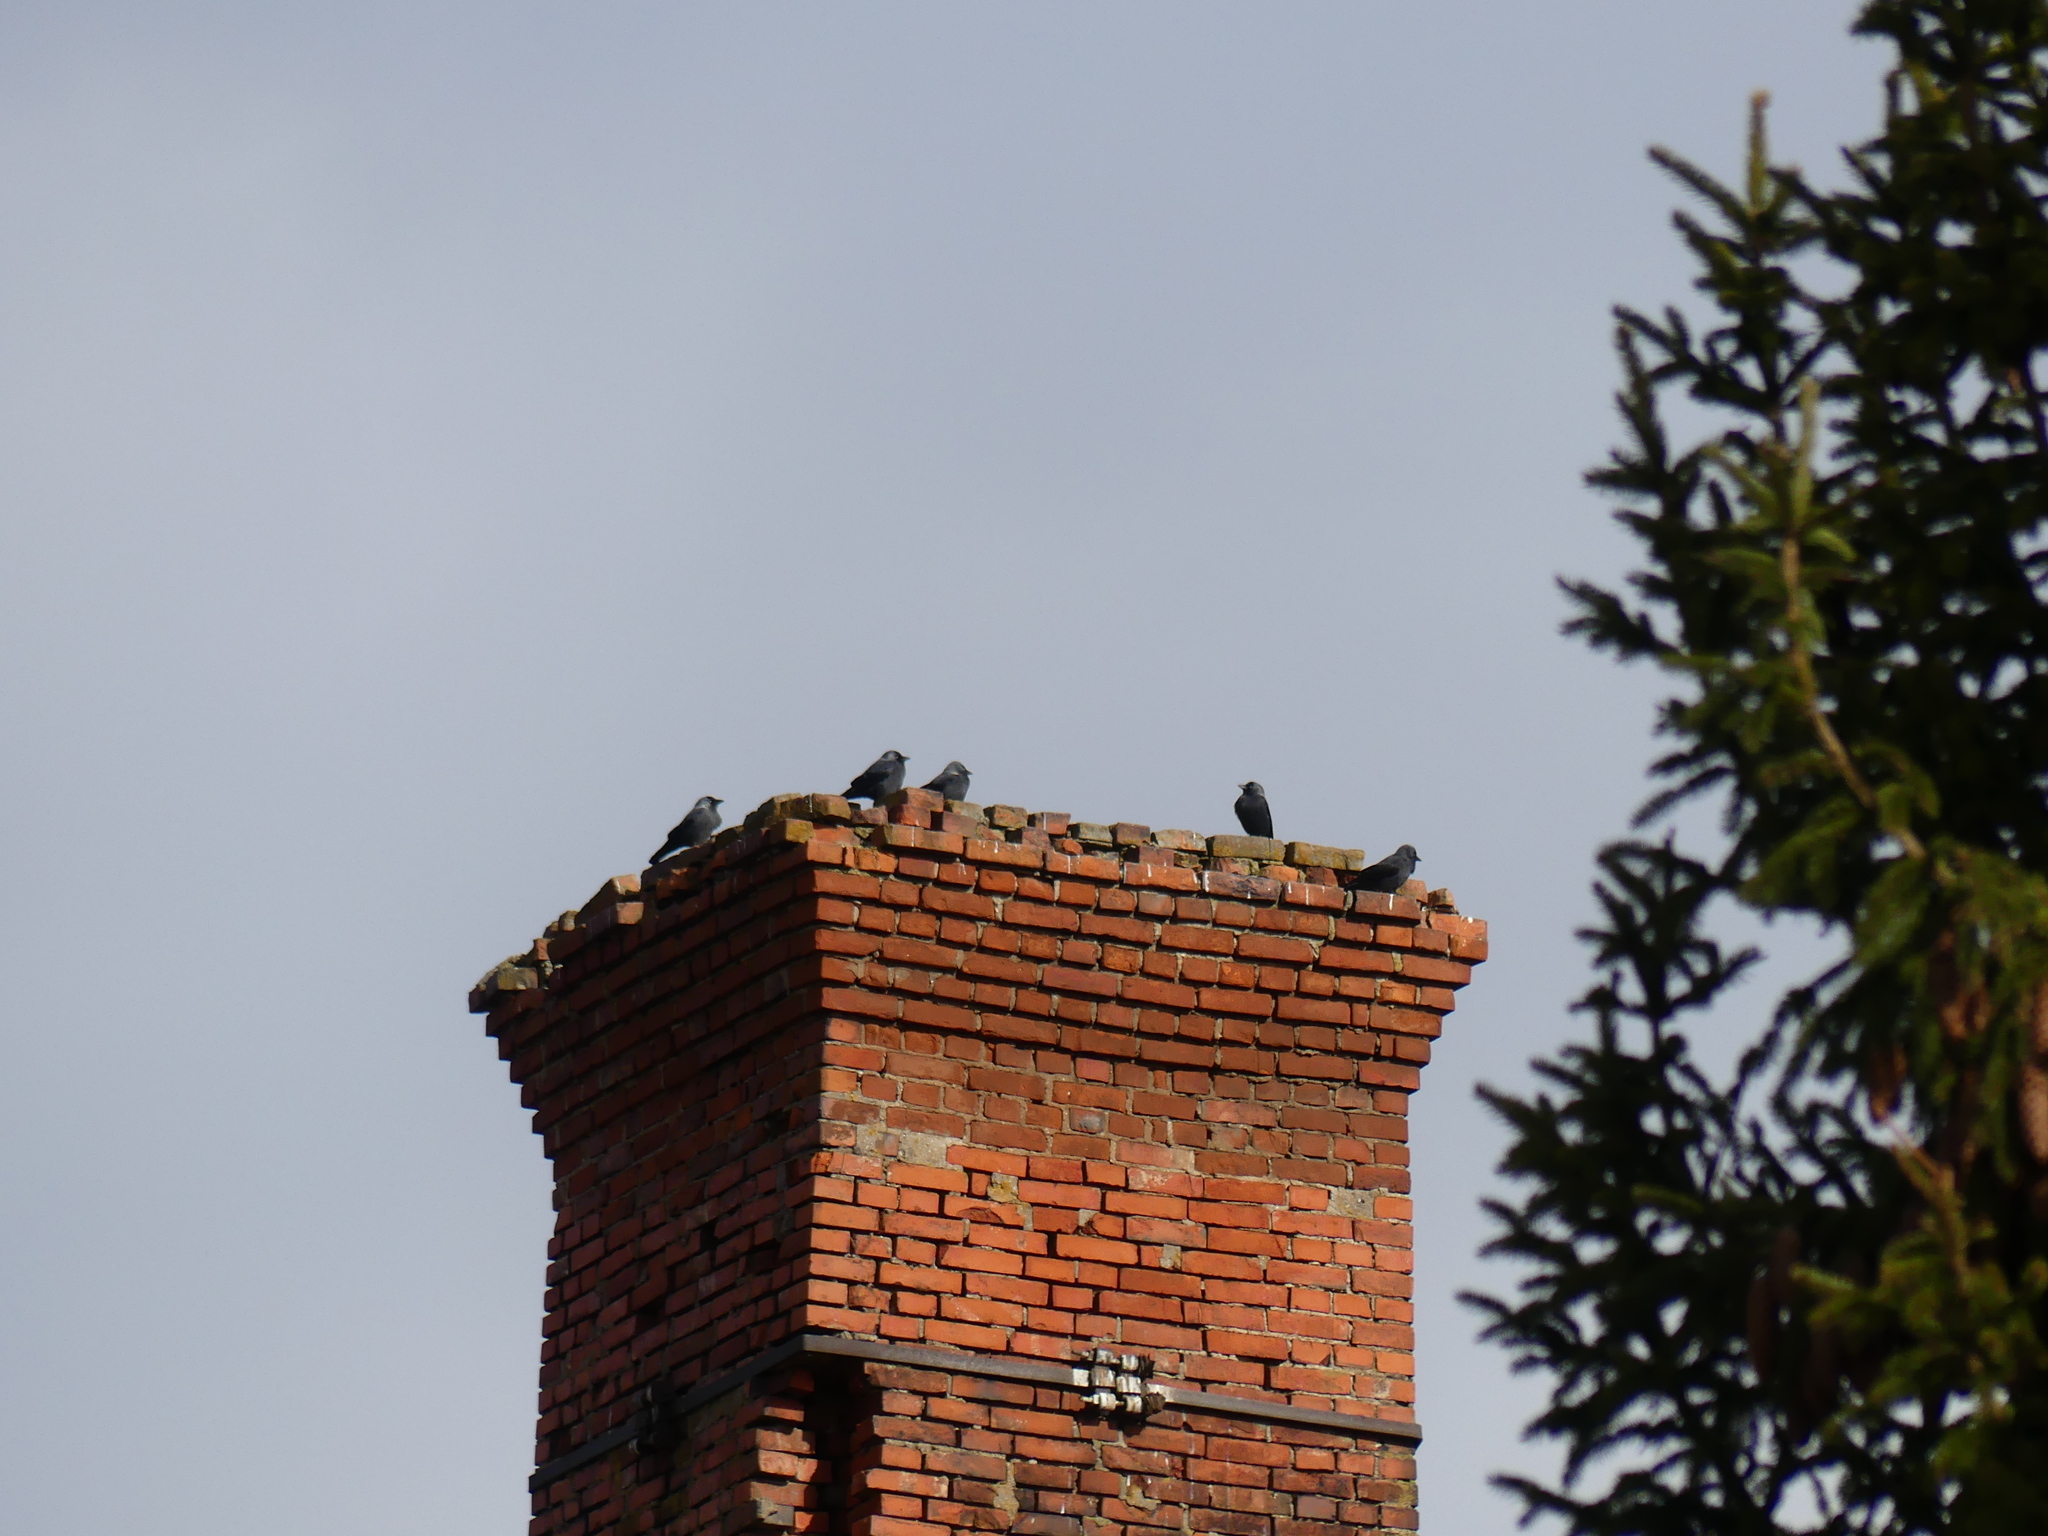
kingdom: Animalia
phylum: Chordata
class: Aves
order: Passeriformes
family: Corvidae
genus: Coloeus
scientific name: Coloeus monedula
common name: Western jackdaw
